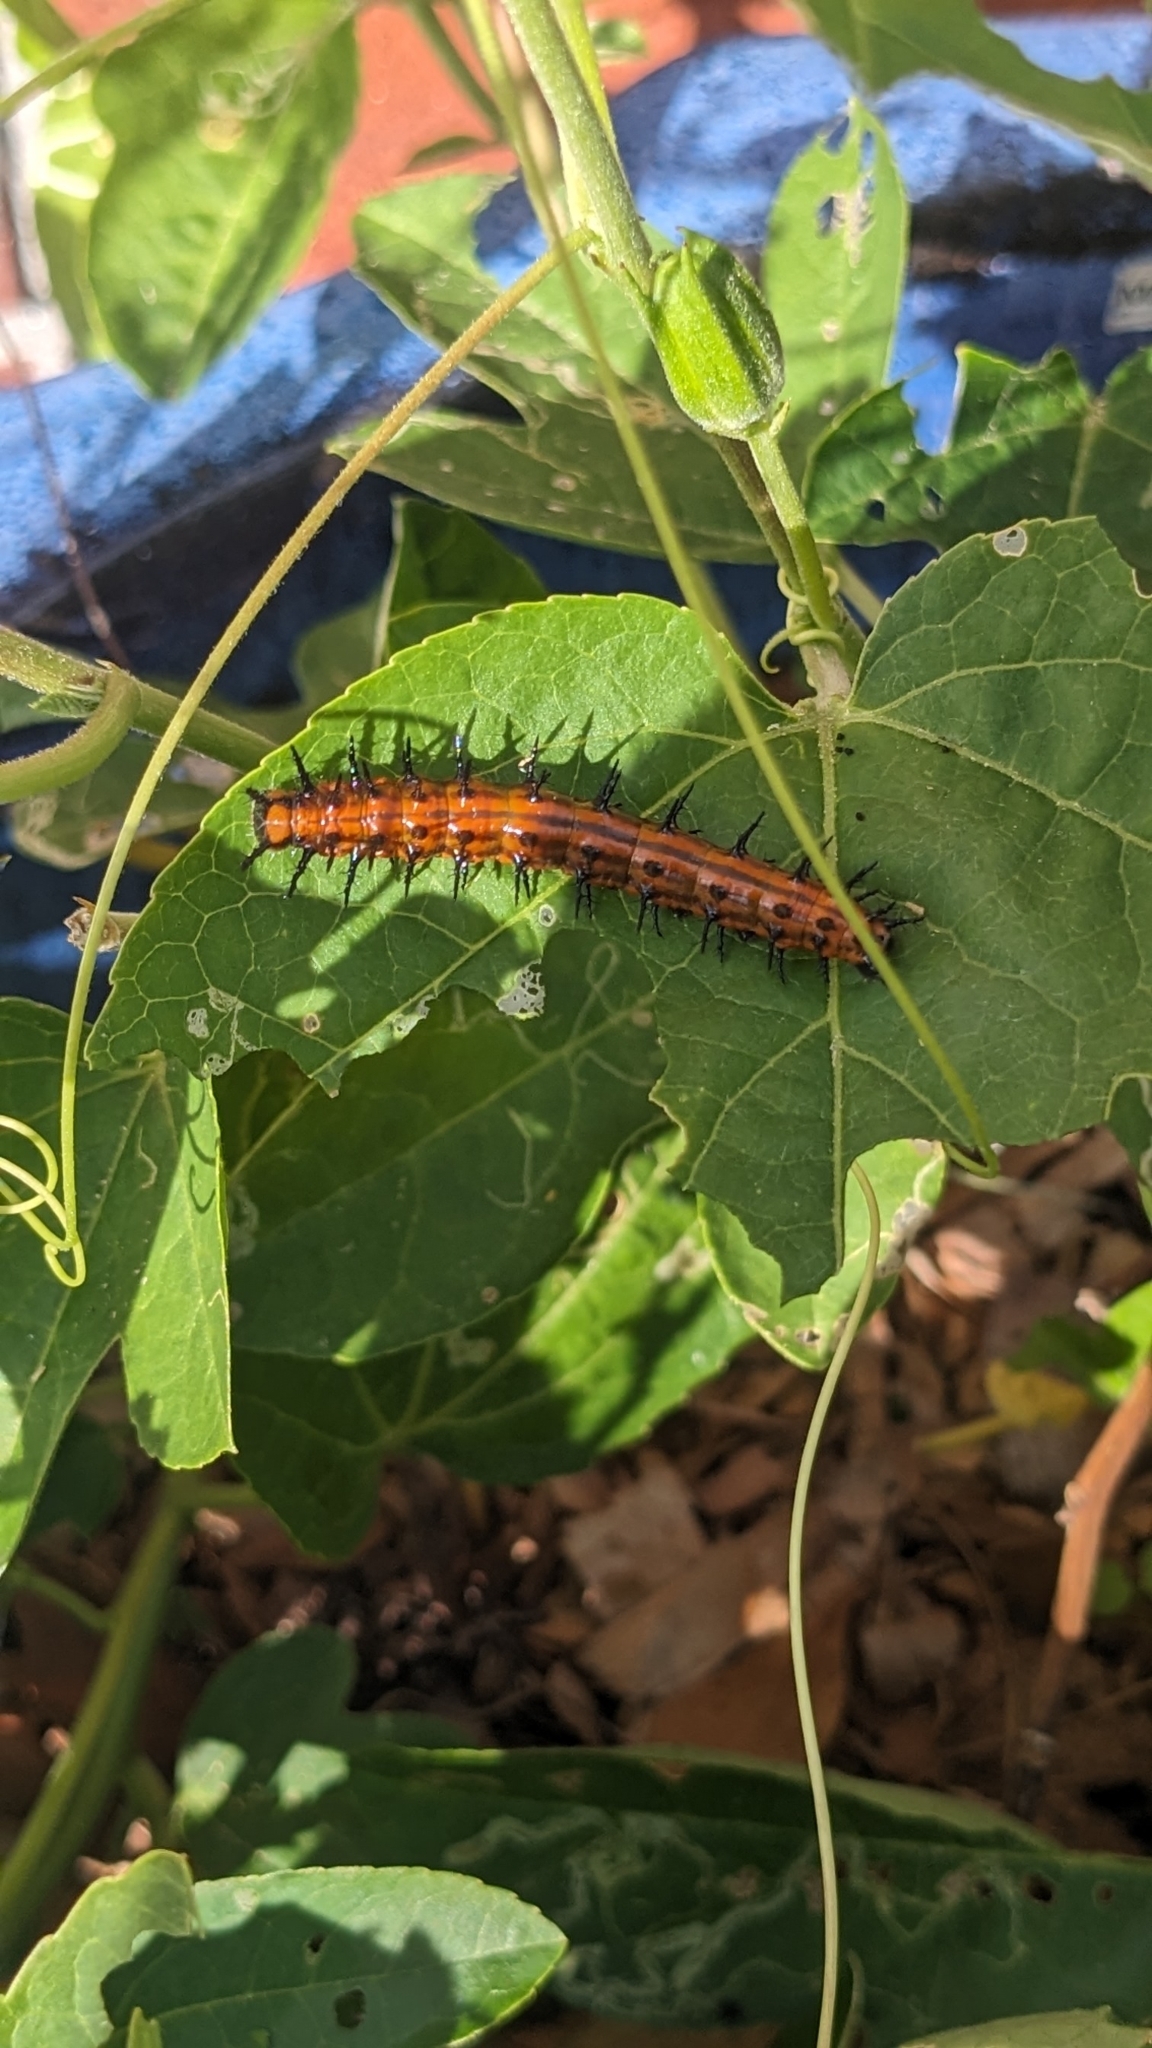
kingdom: Animalia
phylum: Arthropoda
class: Insecta
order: Lepidoptera
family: Nymphalidae
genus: Dione
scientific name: Dione vanillae
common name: Gulf fritillary
